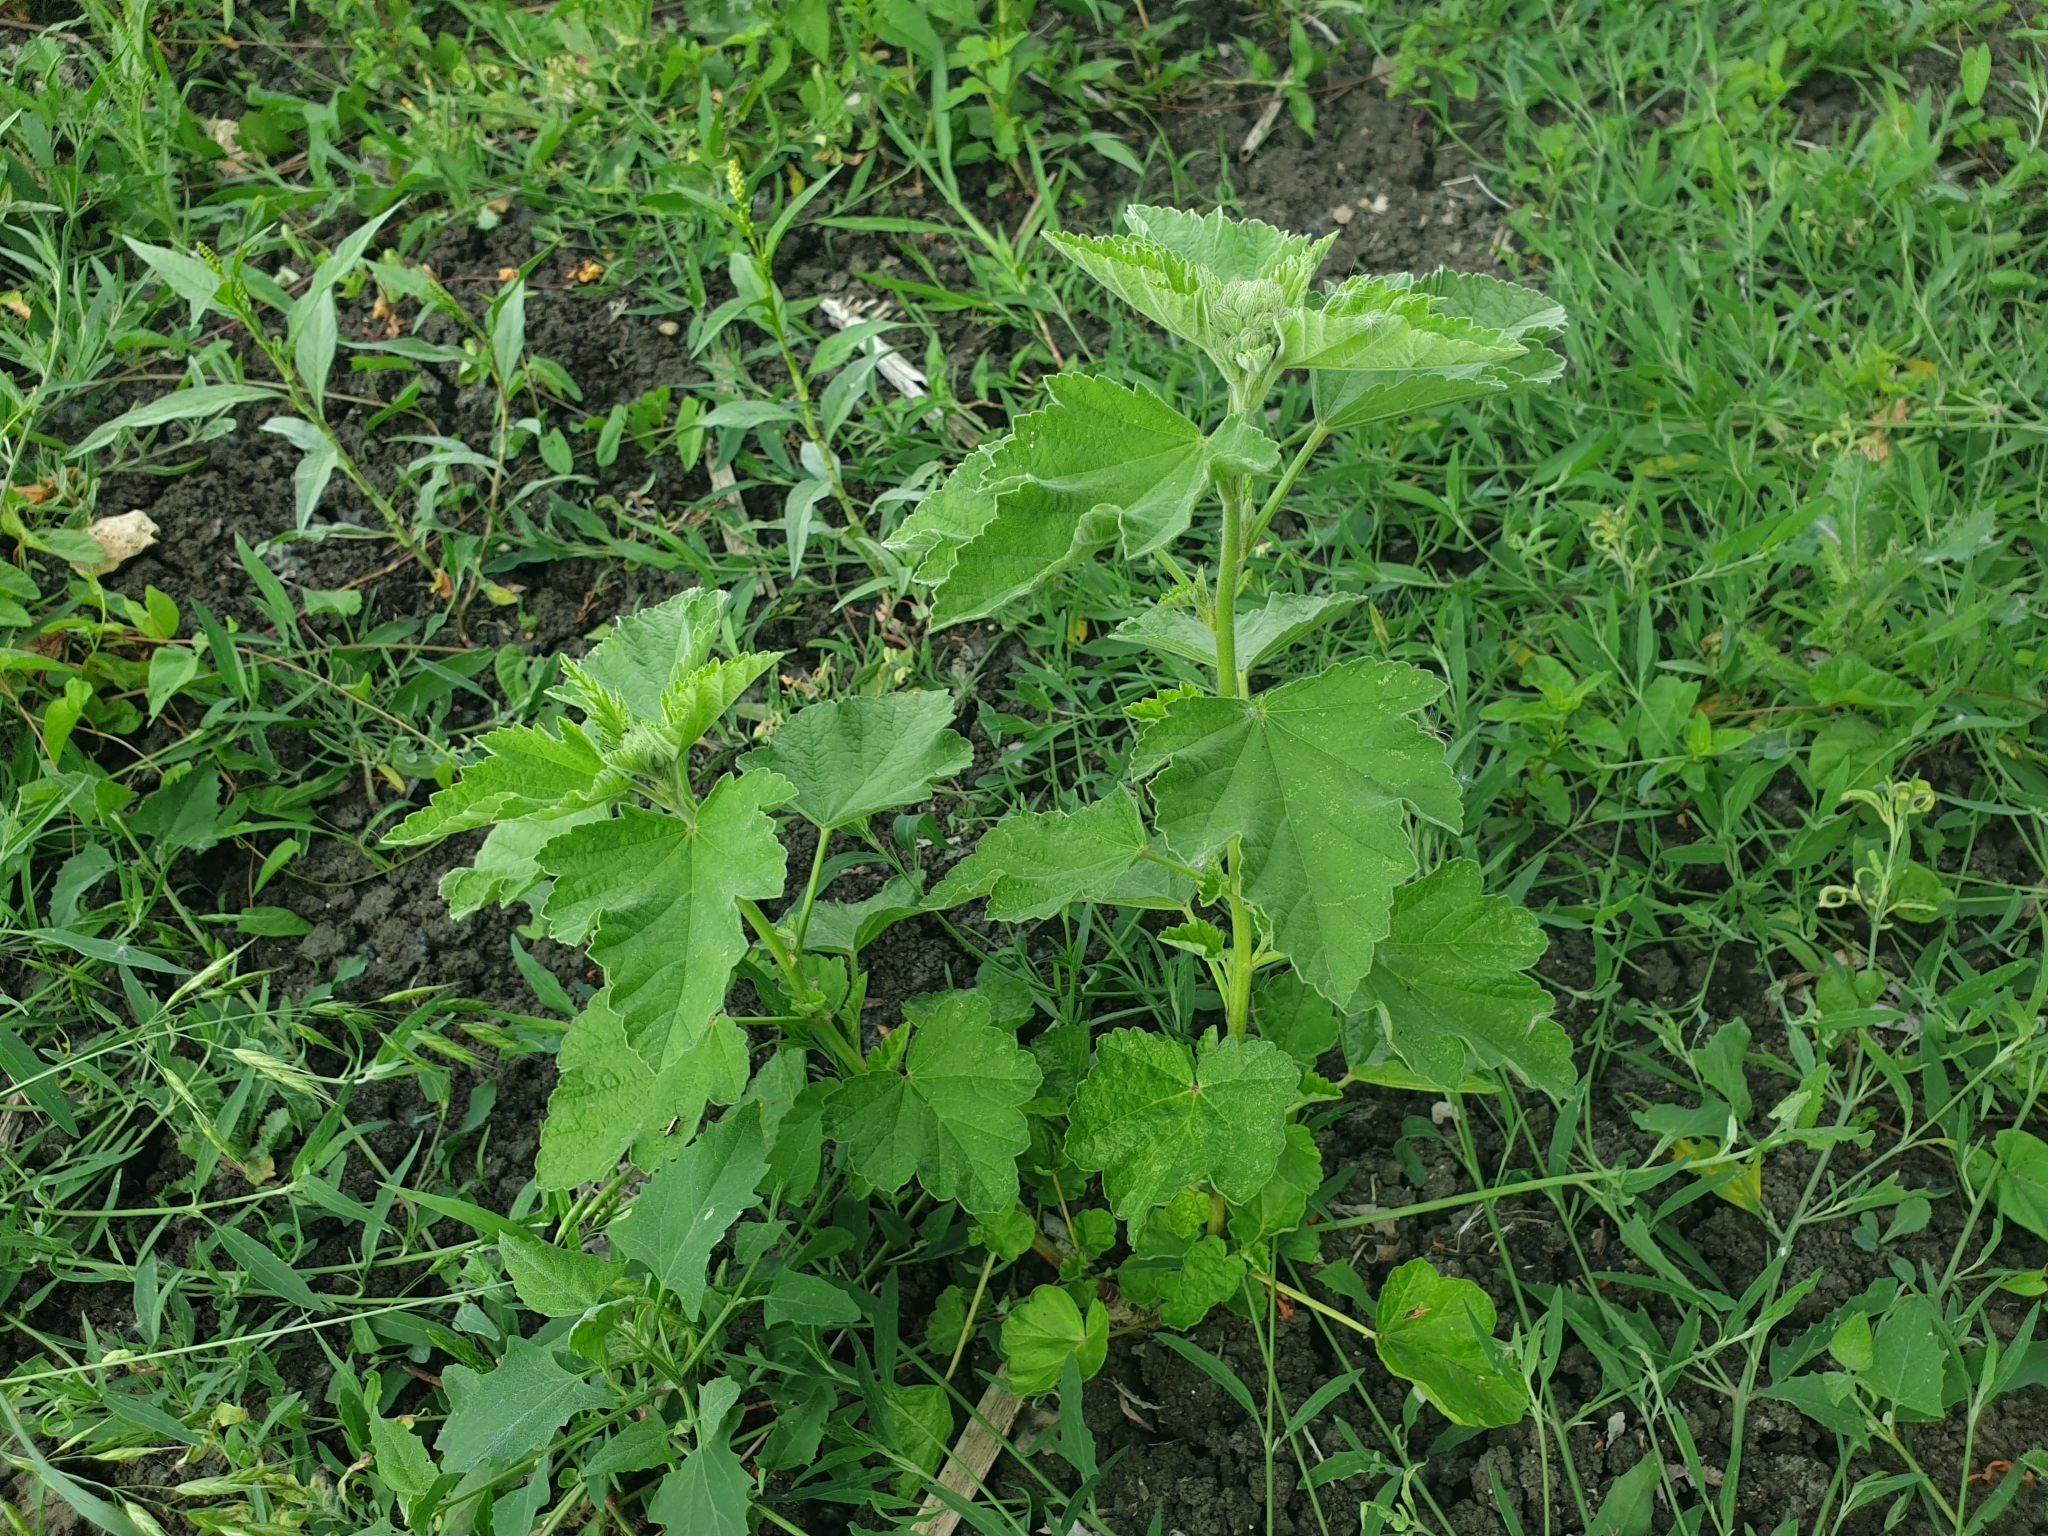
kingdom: Plantae
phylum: Tracheophyta
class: Magnoliopsida
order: Malvales
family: Malvaceae
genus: Althaea
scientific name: Althaea officinalis
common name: Marsh-mallow
